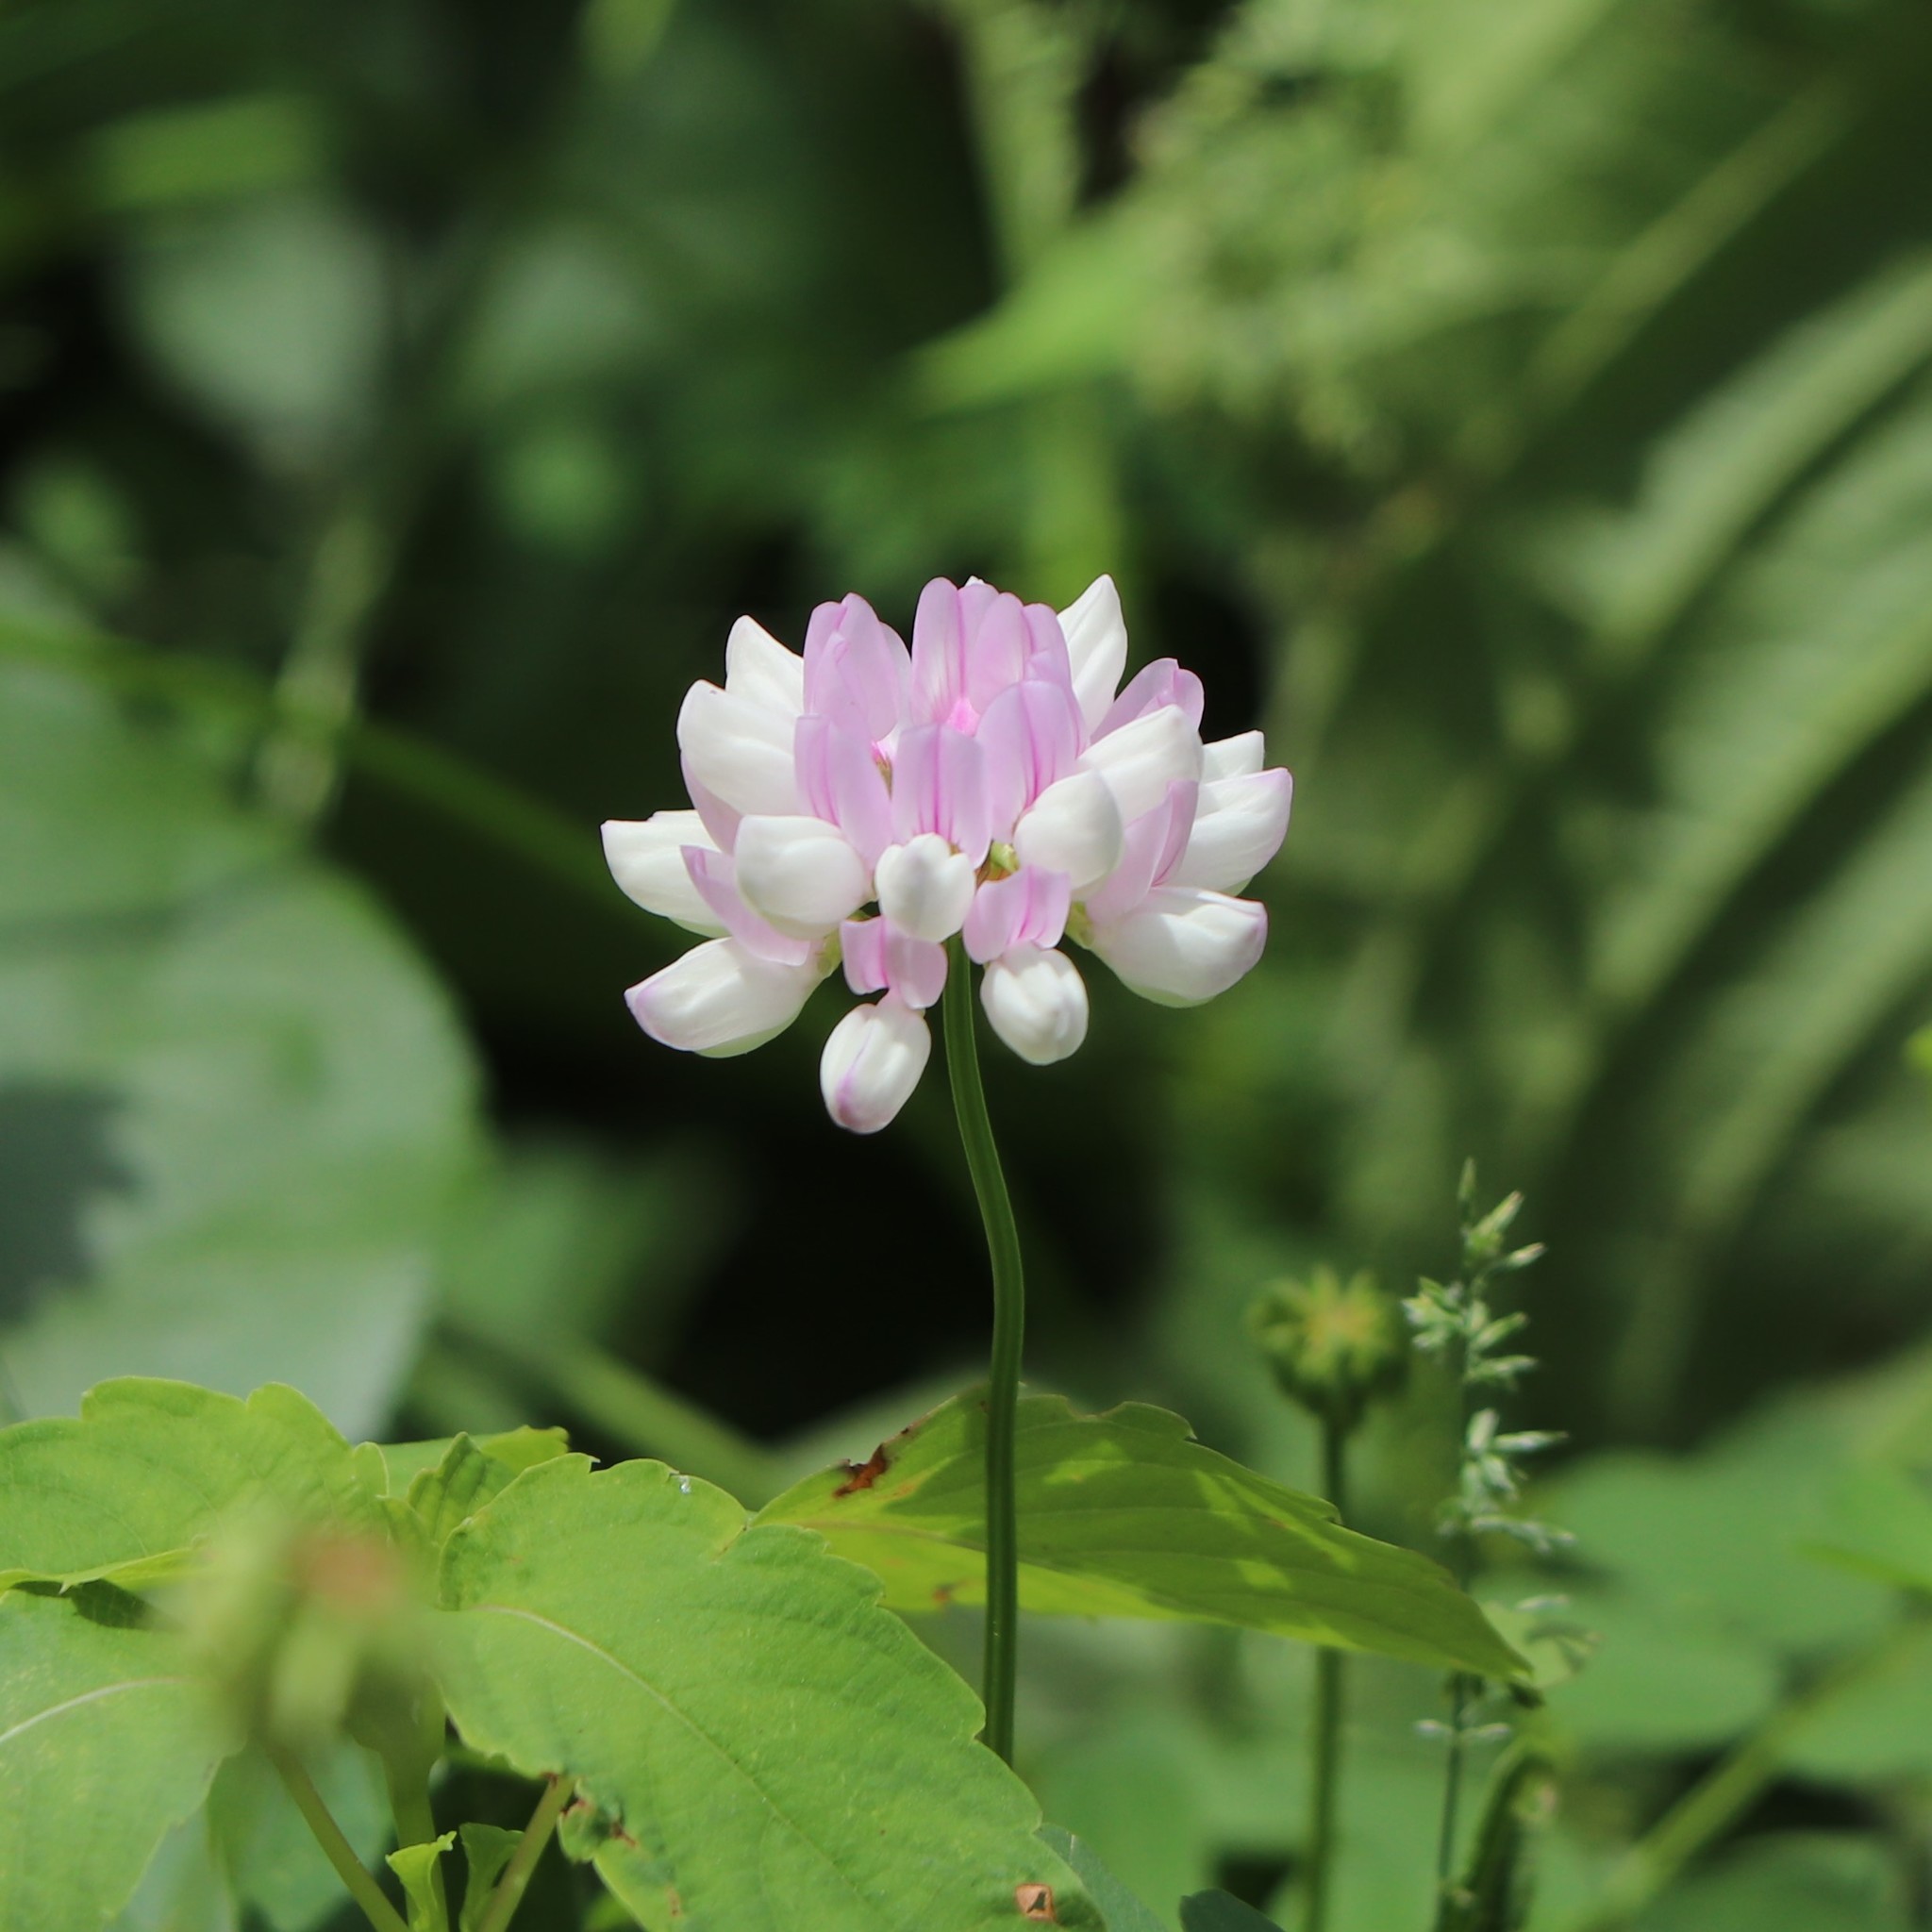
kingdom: Plantae
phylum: Tracheophyta
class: Magnoliopsida
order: Fabales
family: Fabaceae
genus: Coronilla
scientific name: Coronilla varia
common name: Crownvetch
